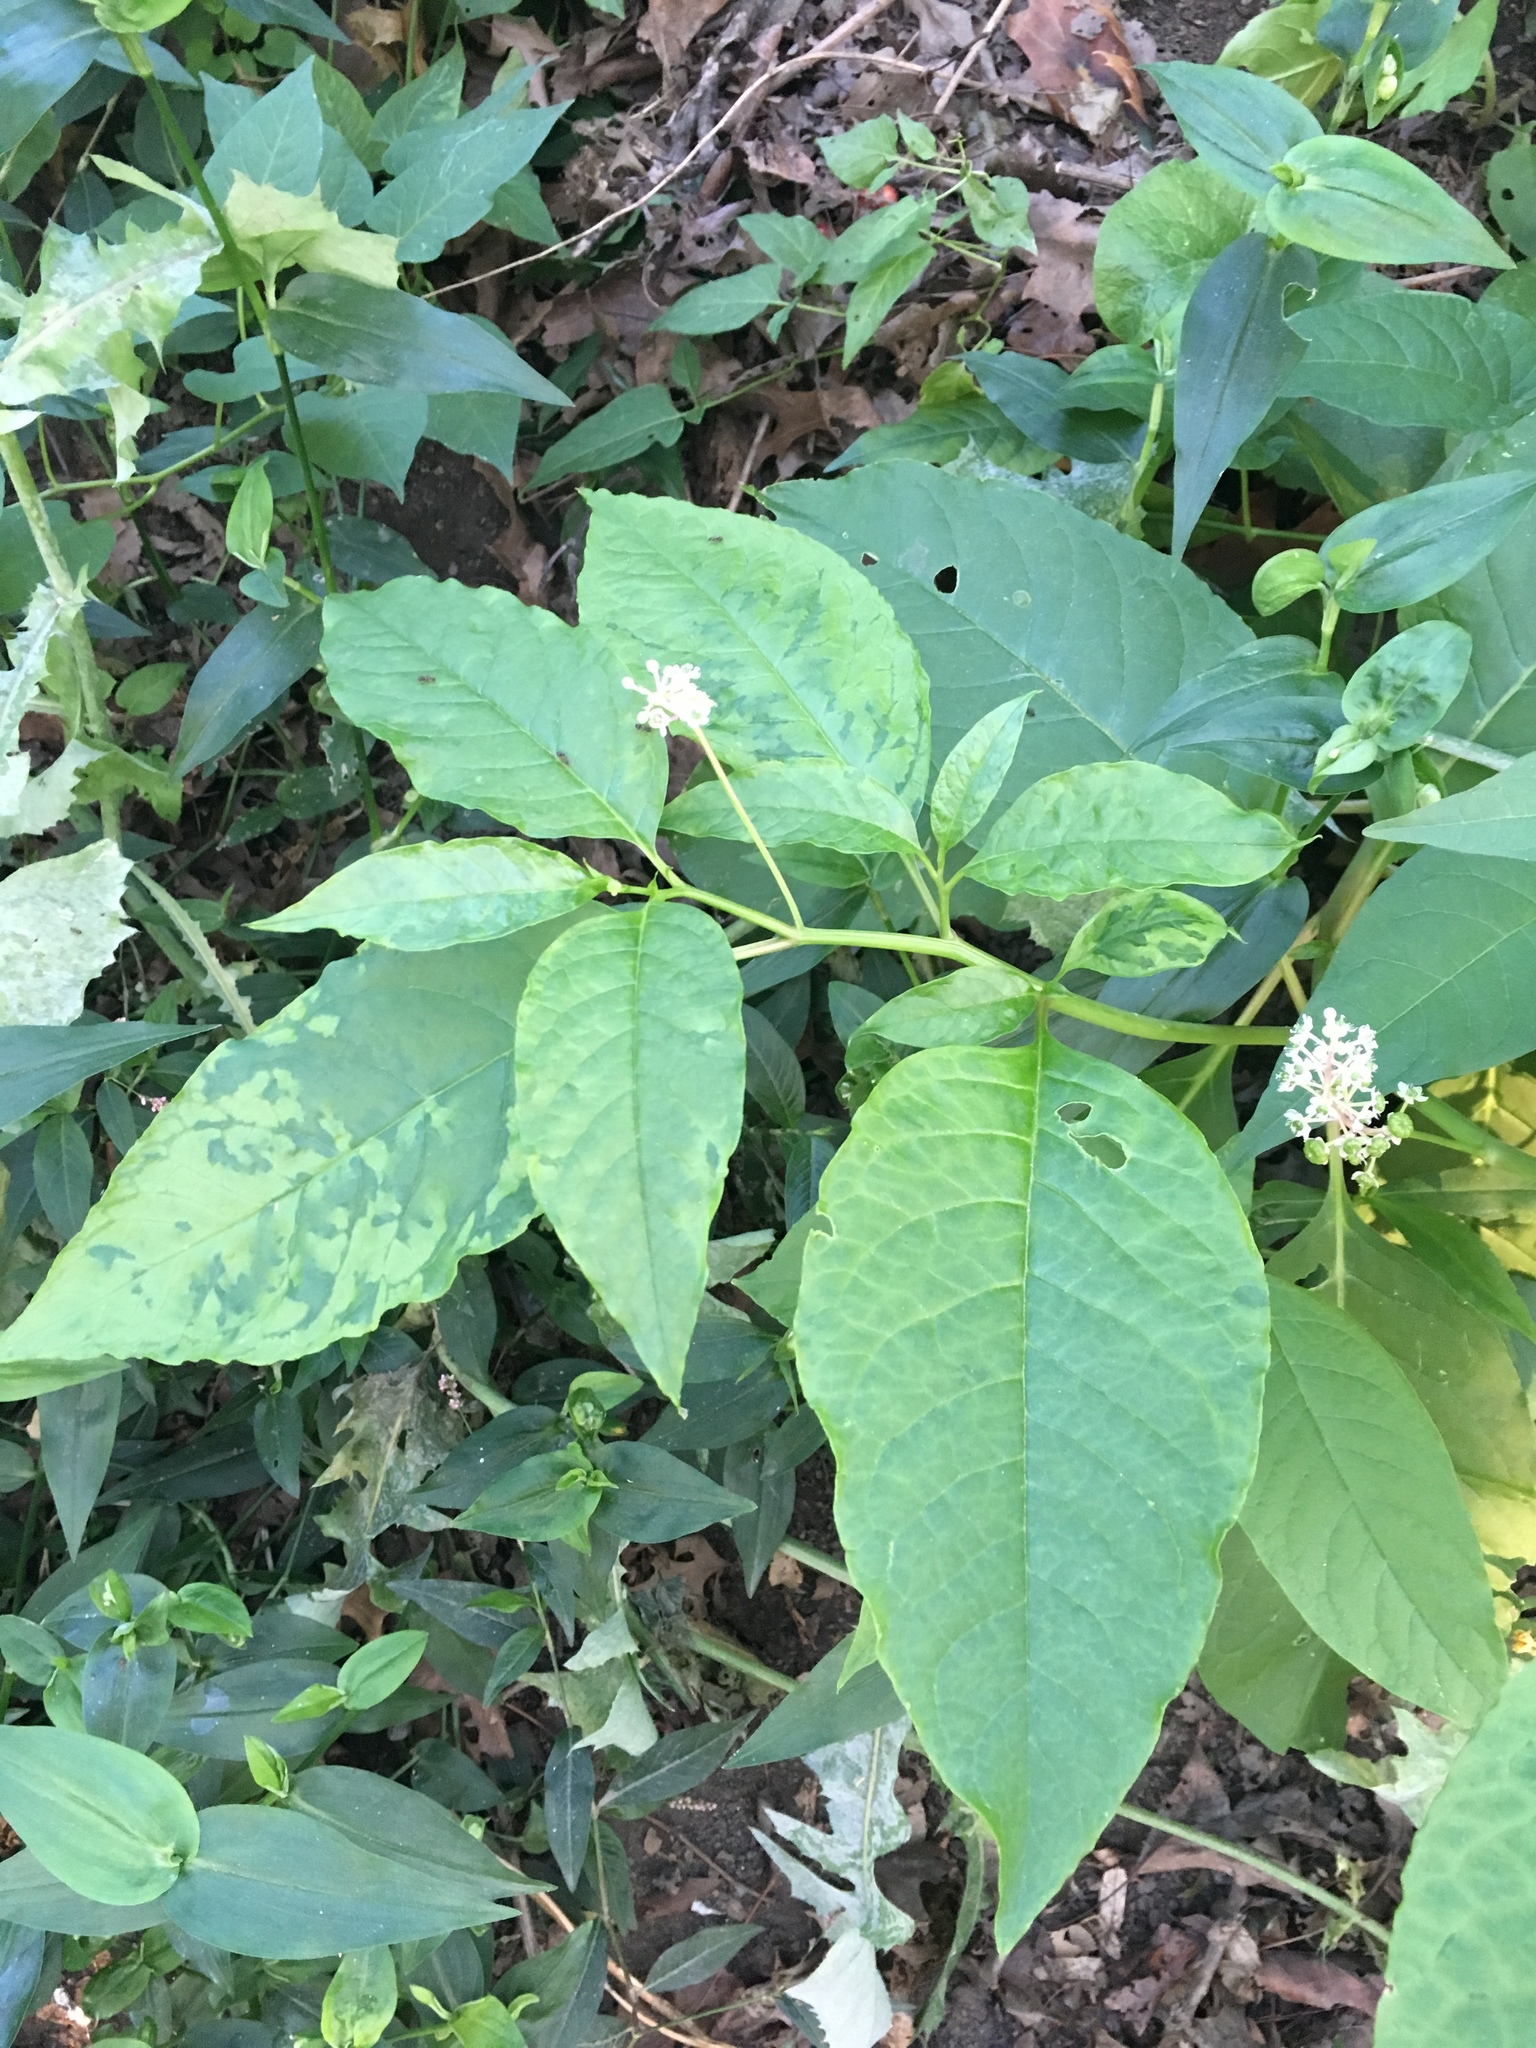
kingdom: Plantae
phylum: Tracheophyta
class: Magnoliopsida
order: Caryophyllales
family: Phytolaccaceae
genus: Phytolacca
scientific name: Phytolacca americana
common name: American pokeweed
